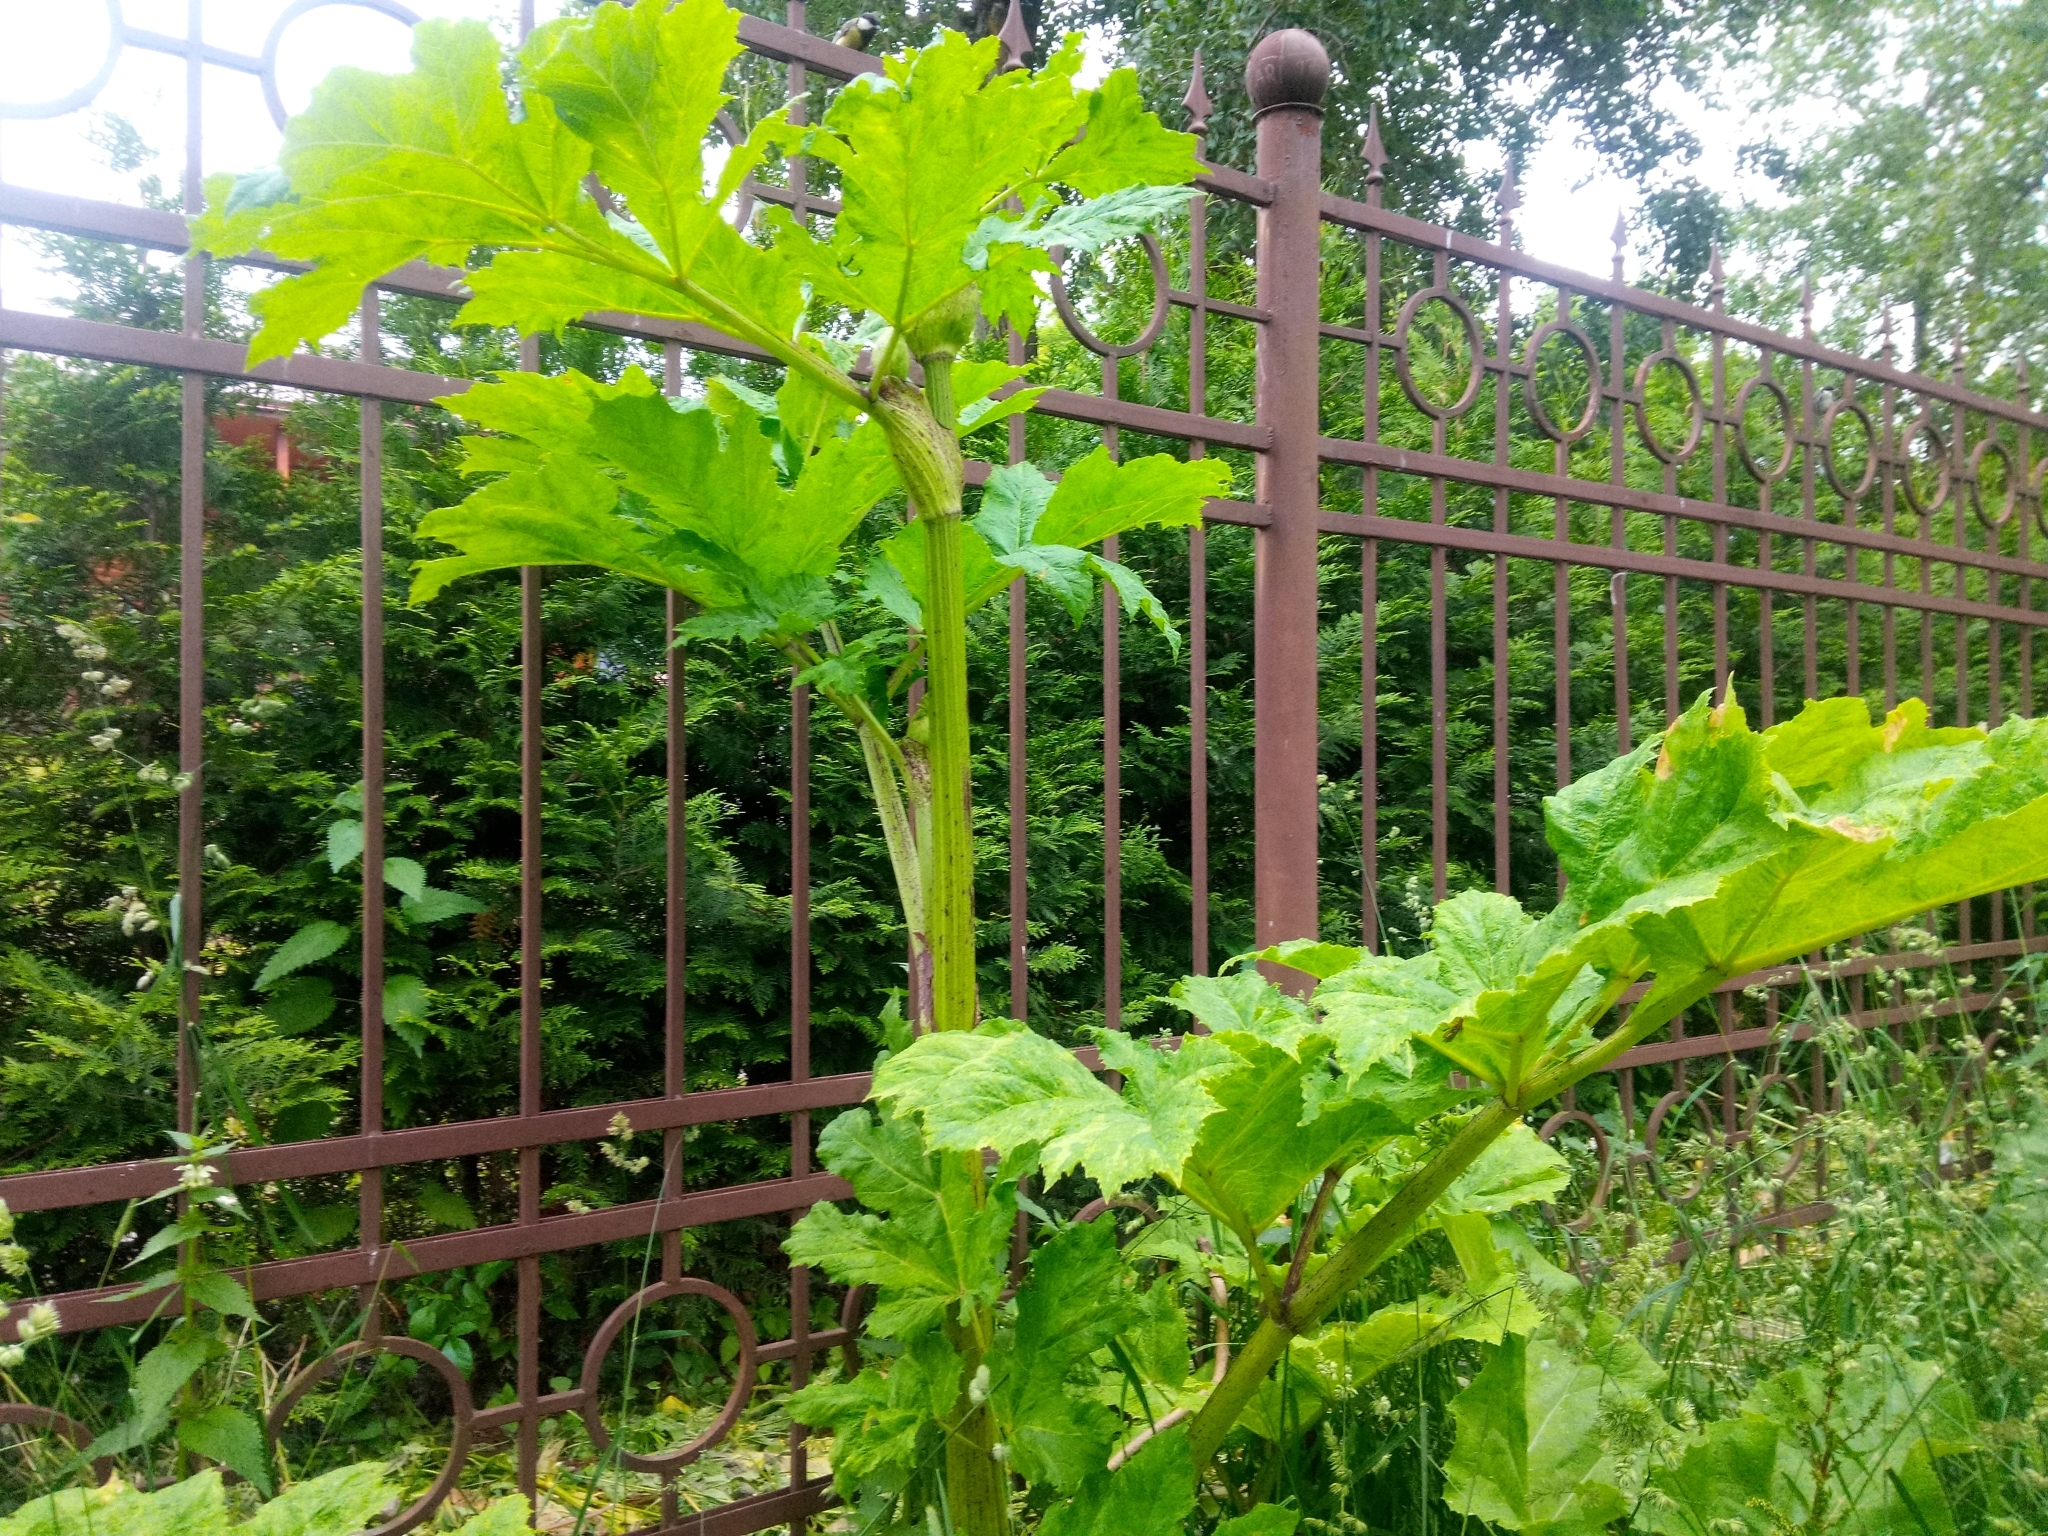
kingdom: Plantae
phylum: Tracheophyta
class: Magnoliopsida
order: Apiales
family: Apiaceae
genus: Heracleum
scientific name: Heracleum sosnowskyi
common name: Sosnowsky's hogweed
